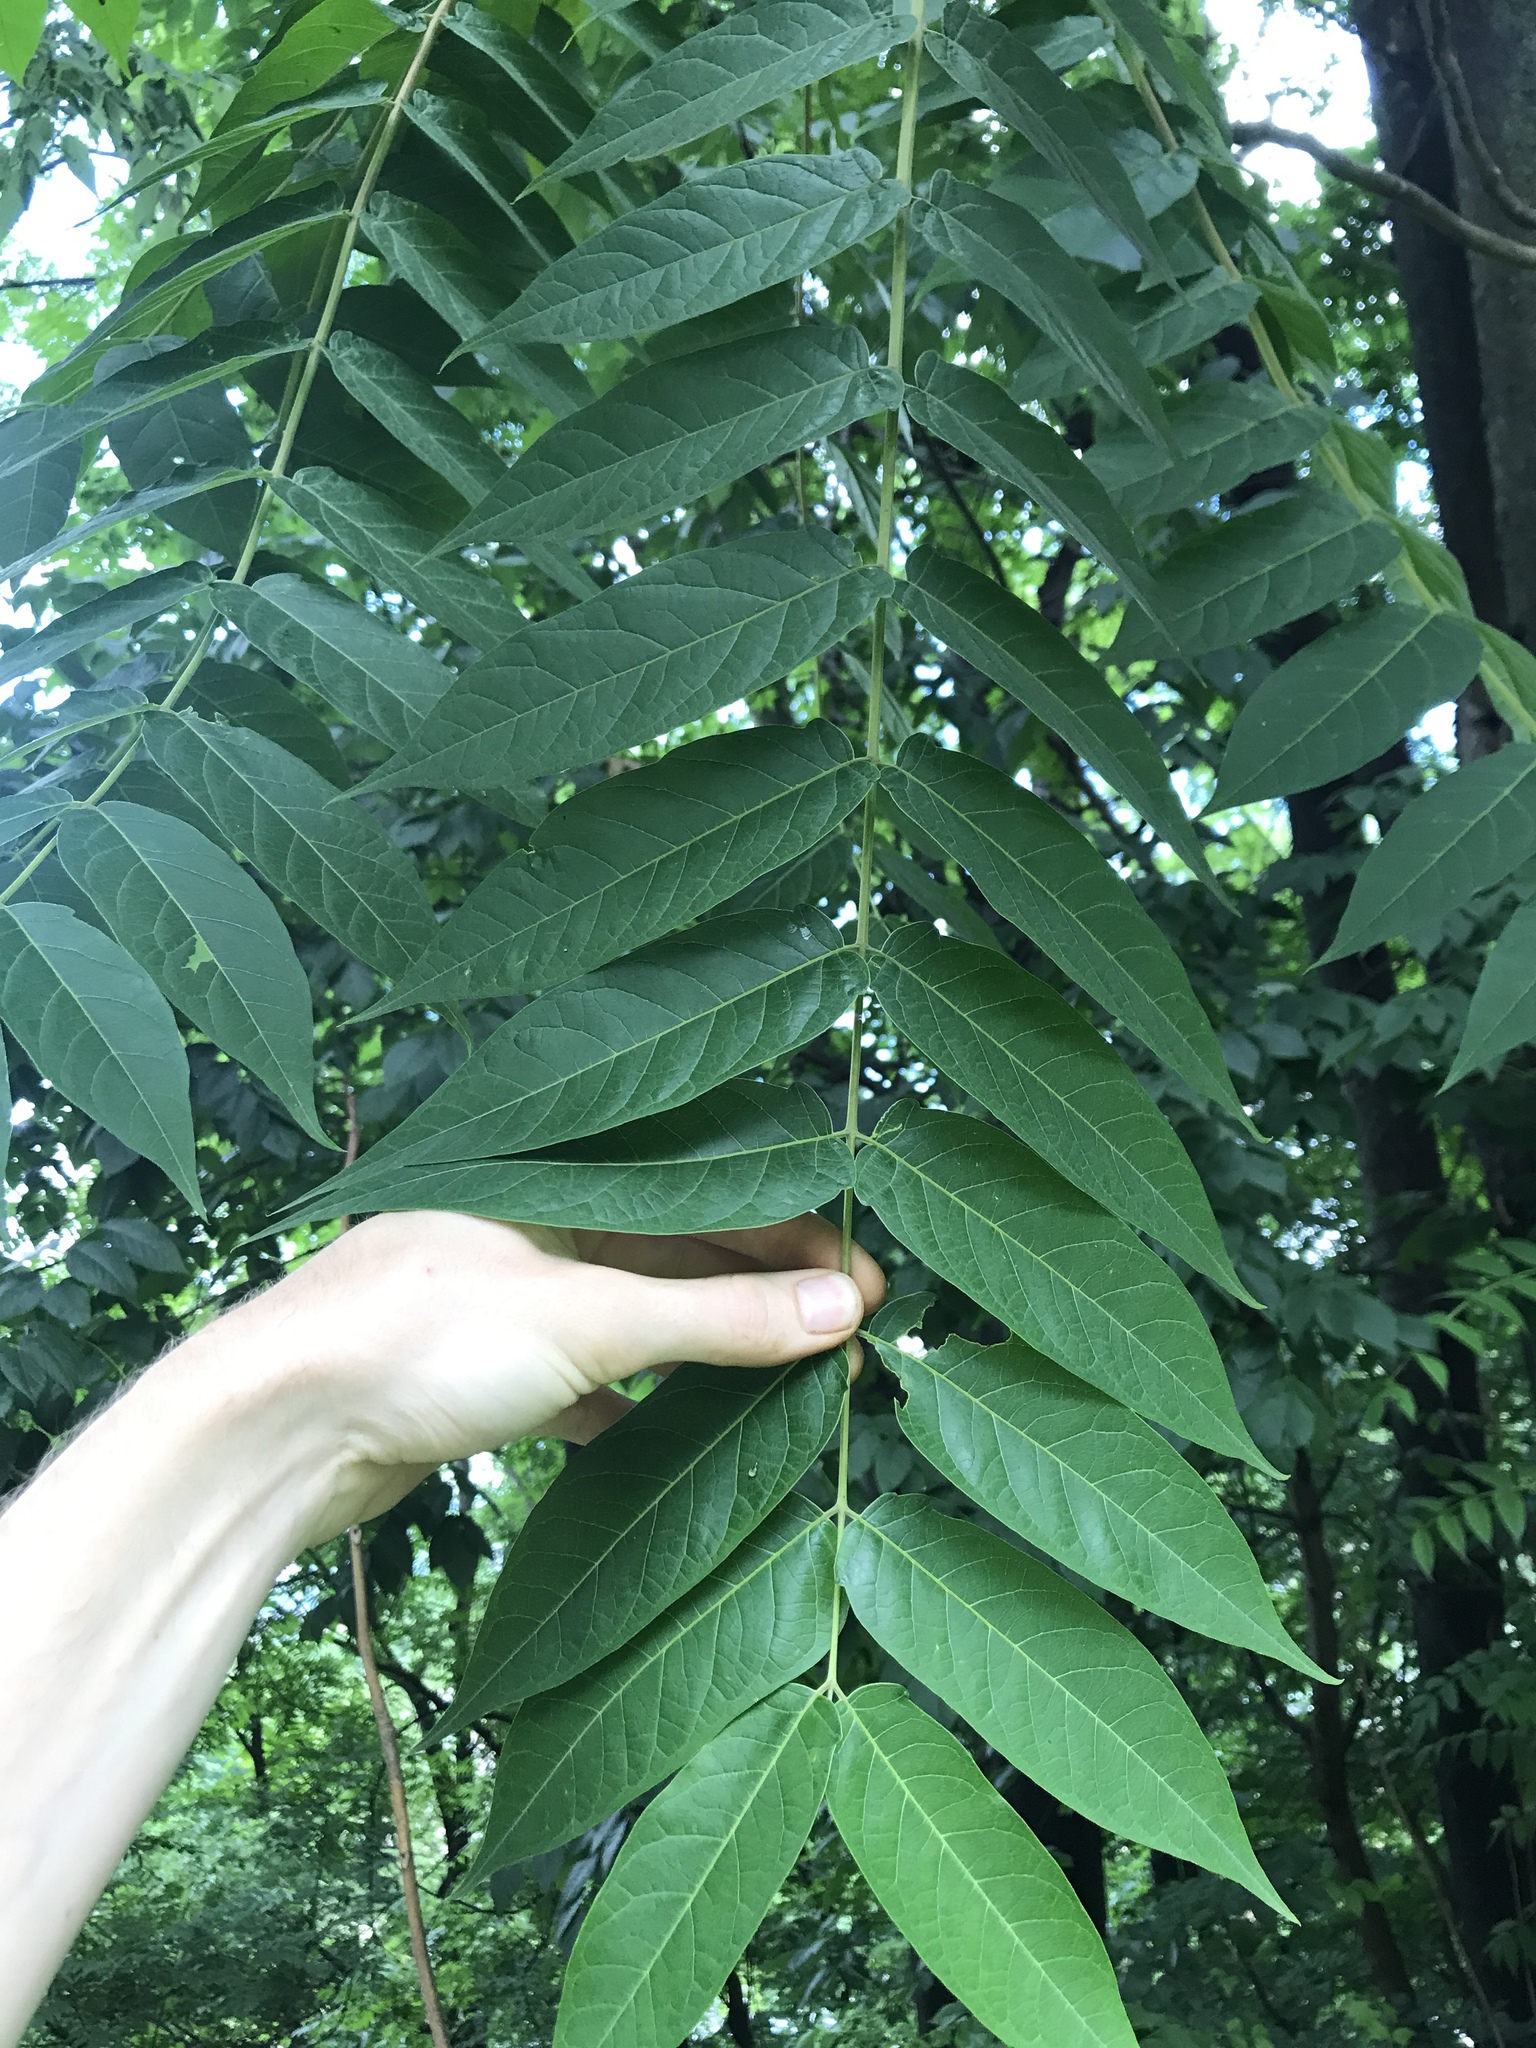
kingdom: Plantae
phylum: Tracheophyta
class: Magnoliopsida
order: Sapindales
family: Simaroubaceae
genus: Ailanthus
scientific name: Ailanthus altissima
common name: Tree-of-heaven
